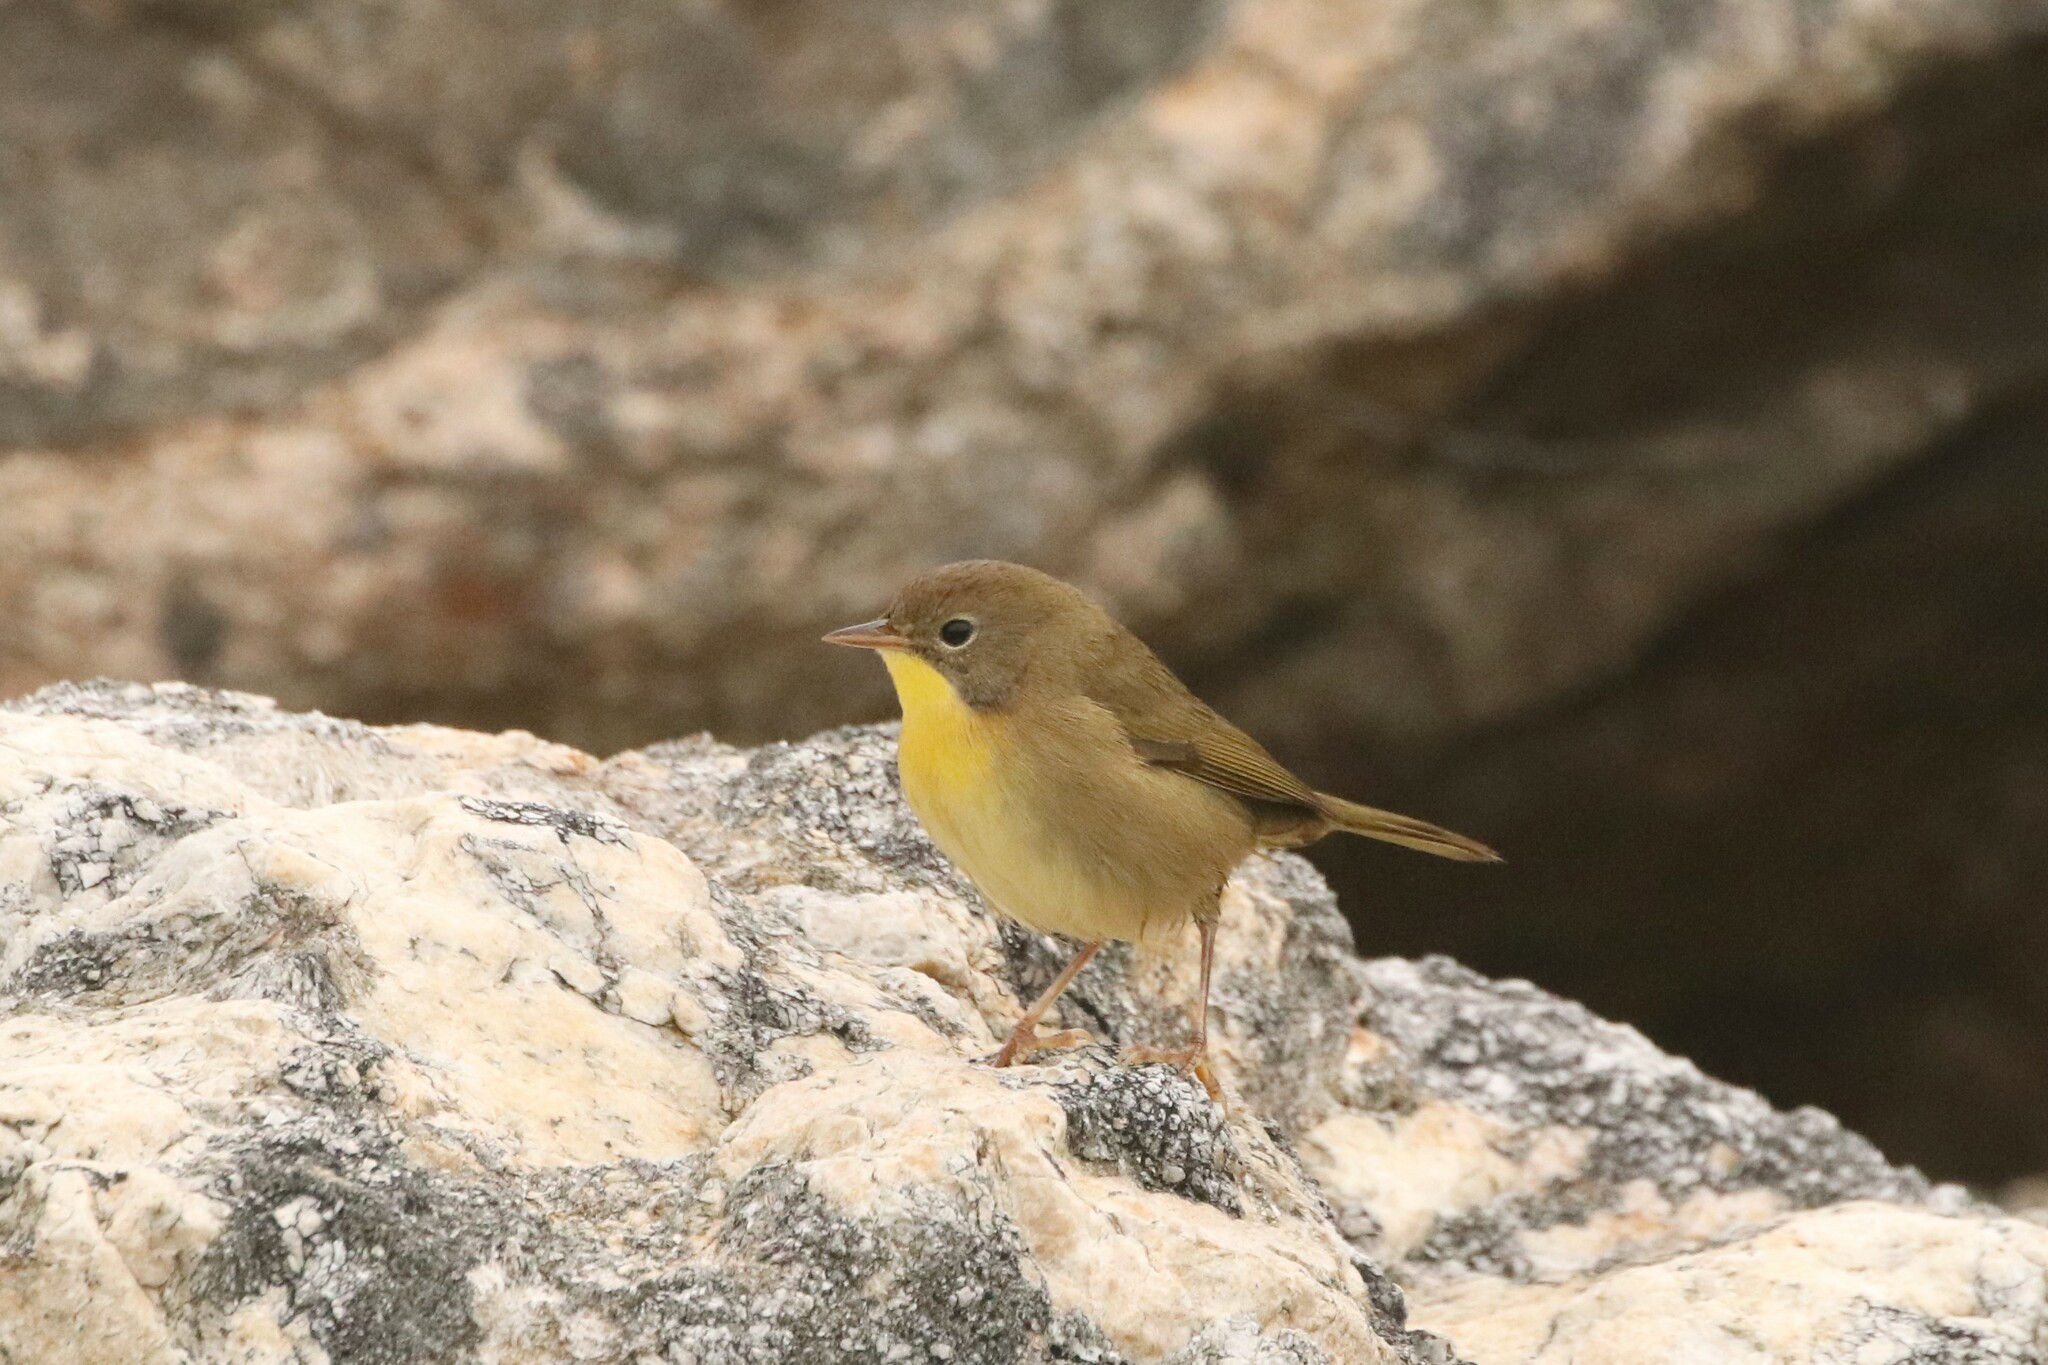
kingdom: Animalia
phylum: Chordata
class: Aves
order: Passeriformes
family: Parulidae
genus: Geothlypis
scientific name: Geothlypis trichas
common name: Common yellowthroat
